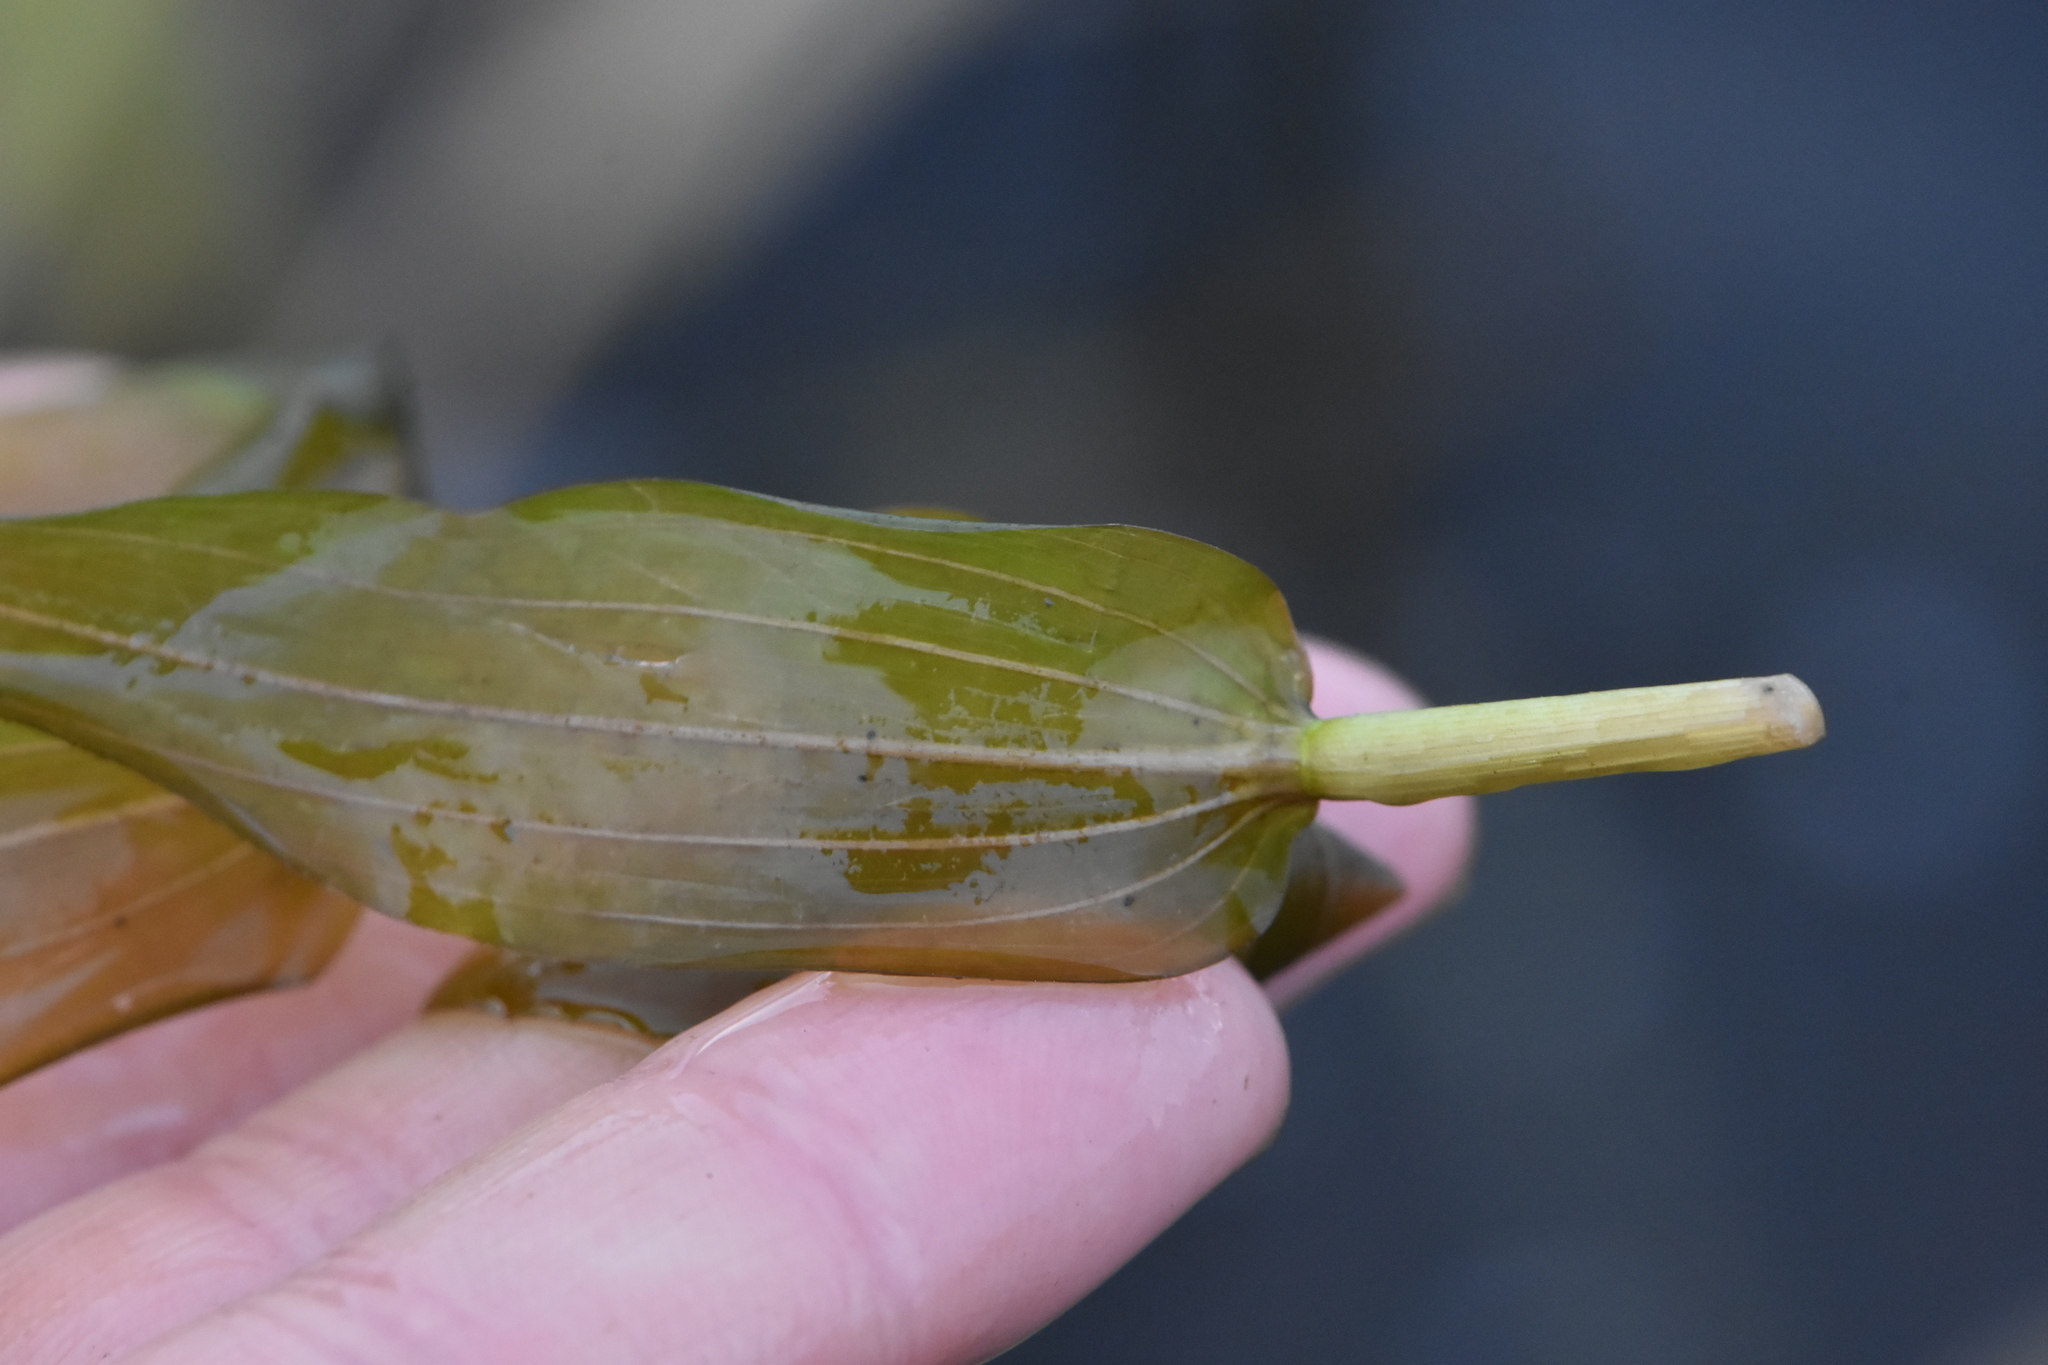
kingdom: Plantae
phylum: Tracheophyta
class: Liliopsida
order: Alismatales
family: Potamogetonaceae
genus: Potamogeton
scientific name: Potamogeton perfoliatus
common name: Perfoliate pondweed
